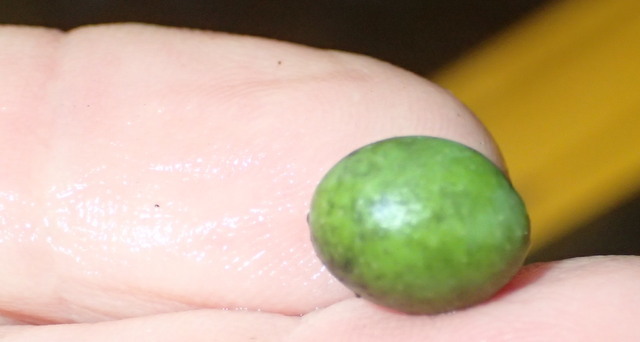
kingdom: Plantae
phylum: Tracheophyta
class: Magnoliopsida
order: Laurales
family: Lauraceae
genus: Persea
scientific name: Persea palustris
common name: Swampbay
